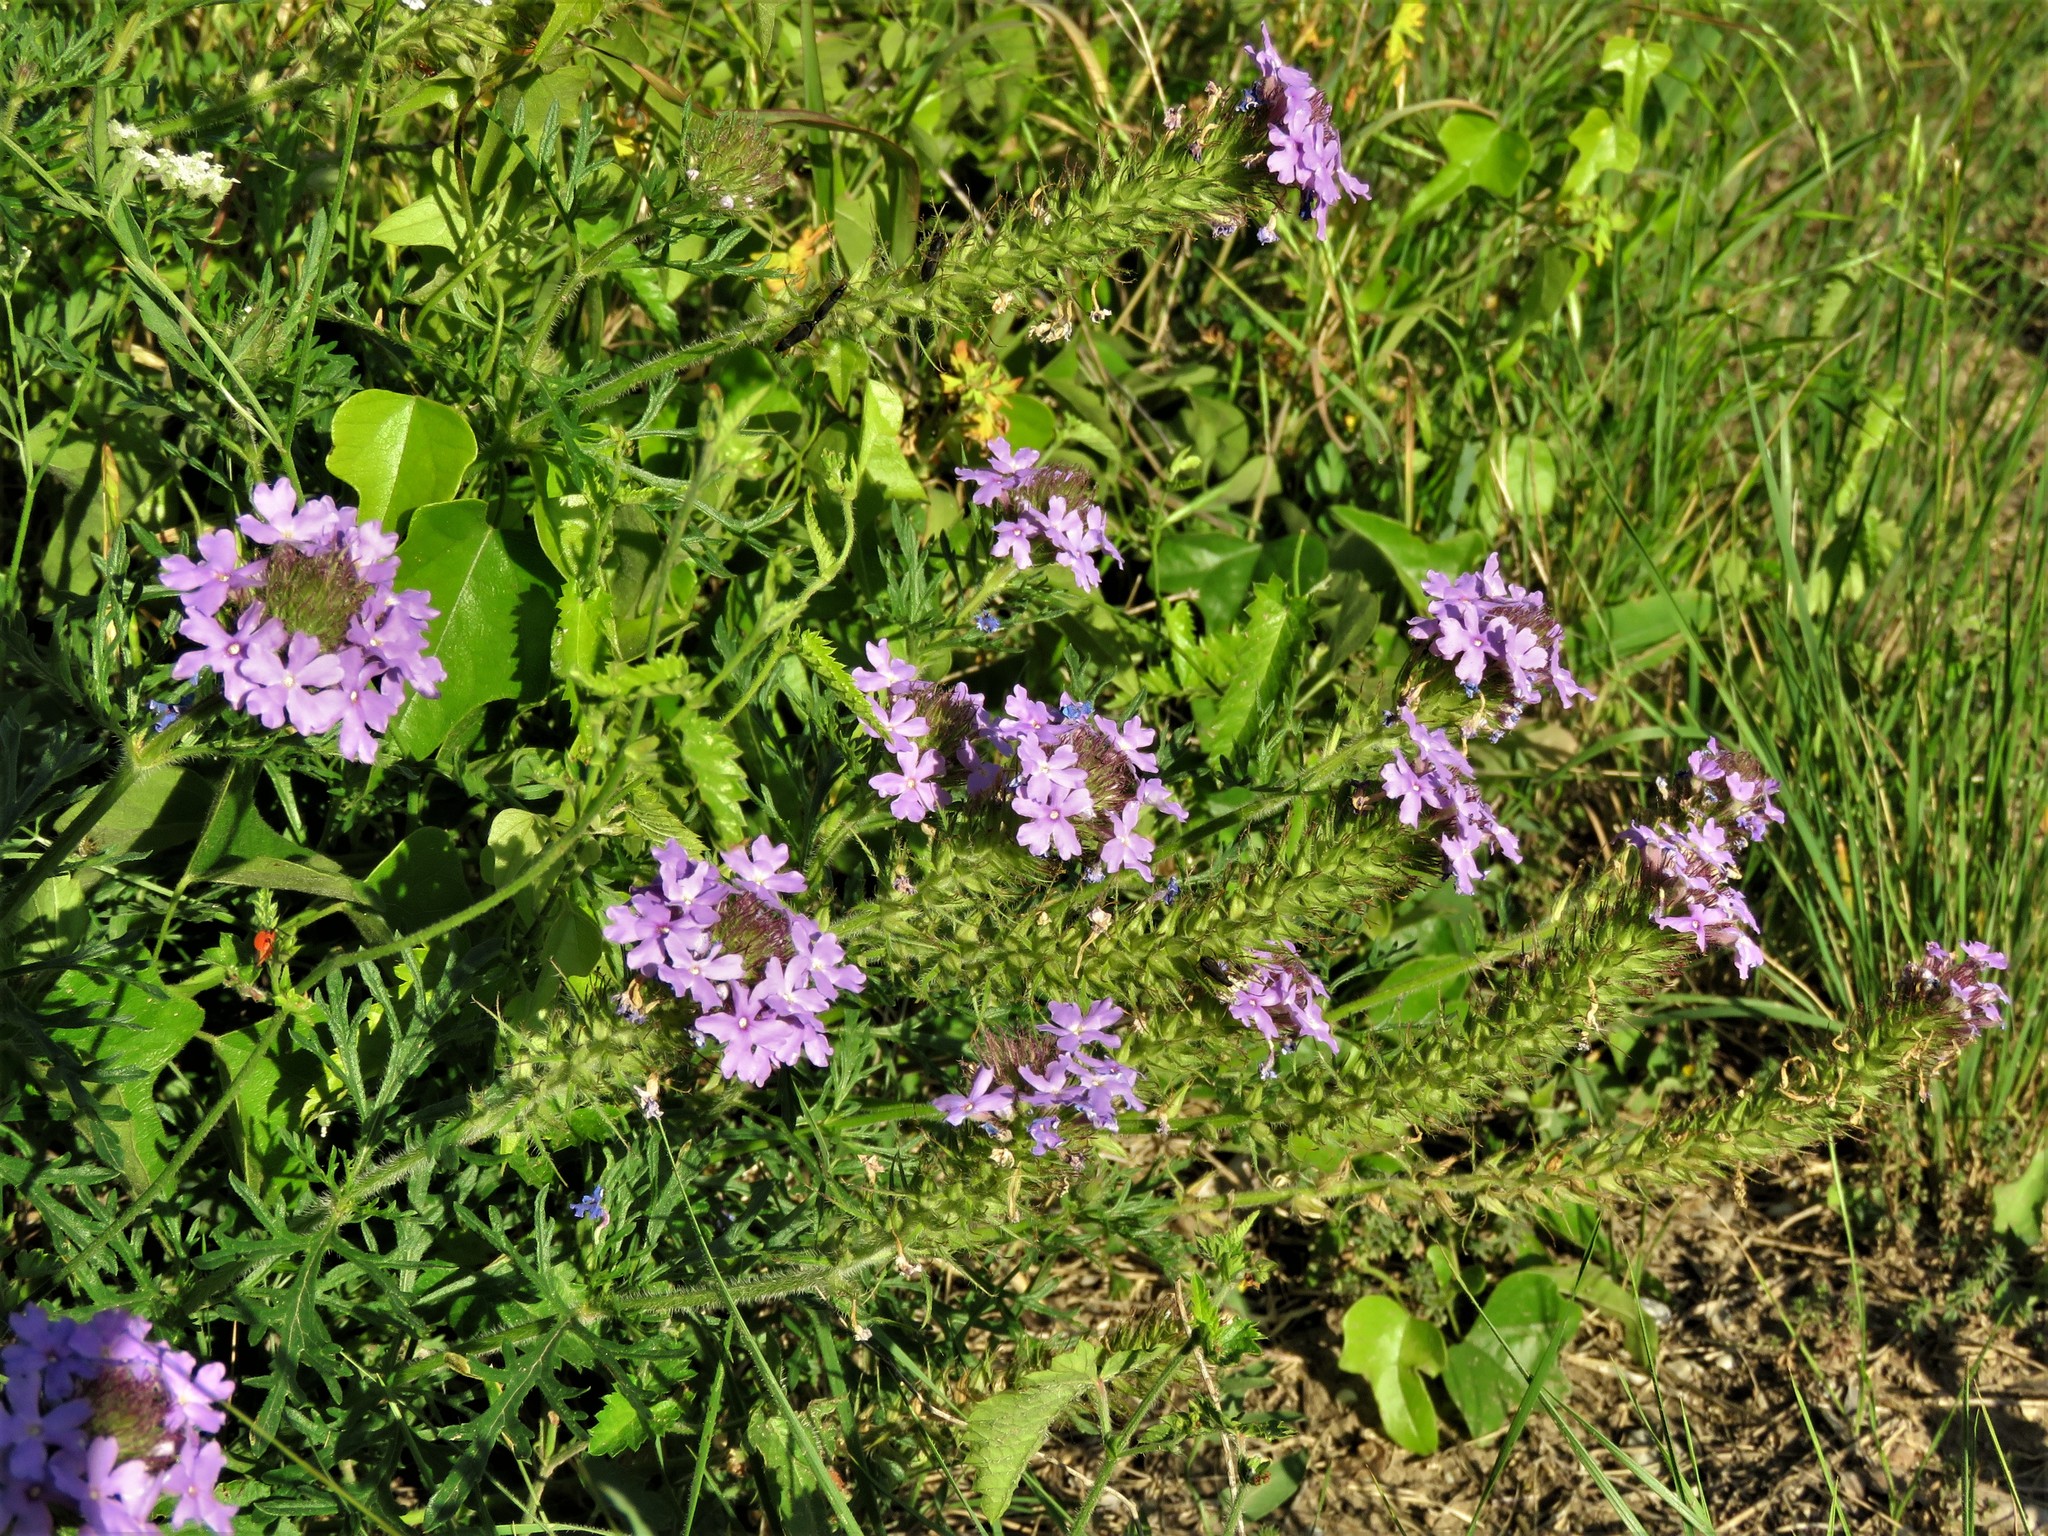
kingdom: Plantae
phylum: Tracheophyta
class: Magnoliopsida
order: Lamiales
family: Verbenaceae
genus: Verbena
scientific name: Verbena bipinnatifida
